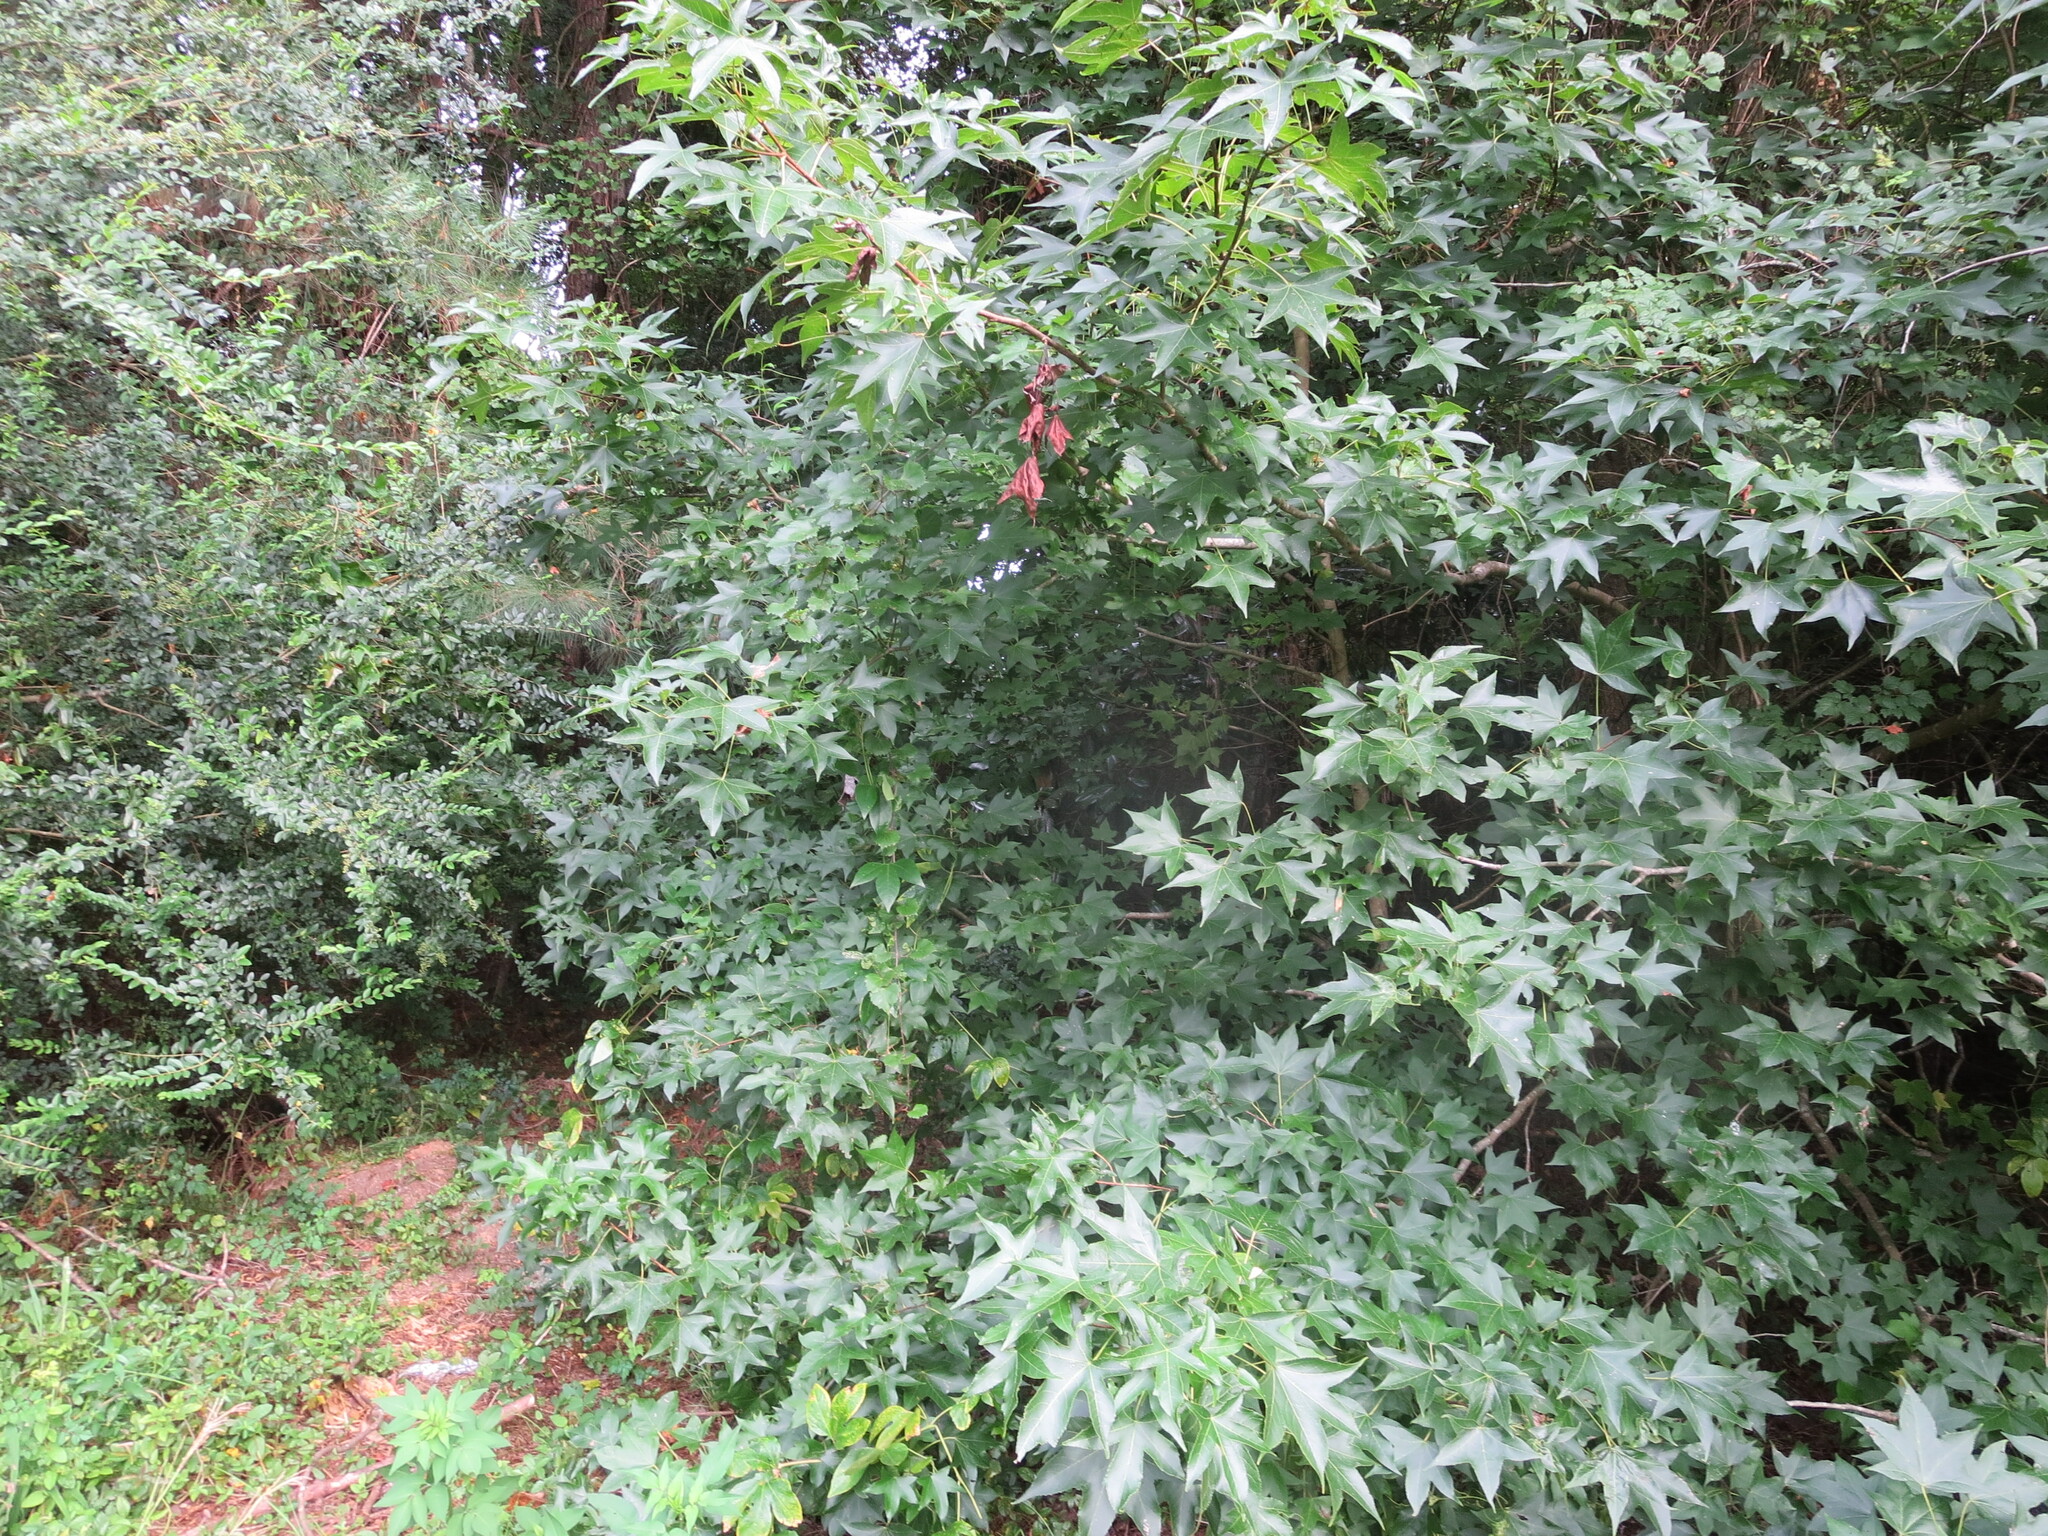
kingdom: Plantae
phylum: Tracheophyta
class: Magnoliopsida
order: Saxifragales
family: Altingiaceae
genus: Liquidambar
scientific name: Liquidambar styraciflua
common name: Sweet gum
